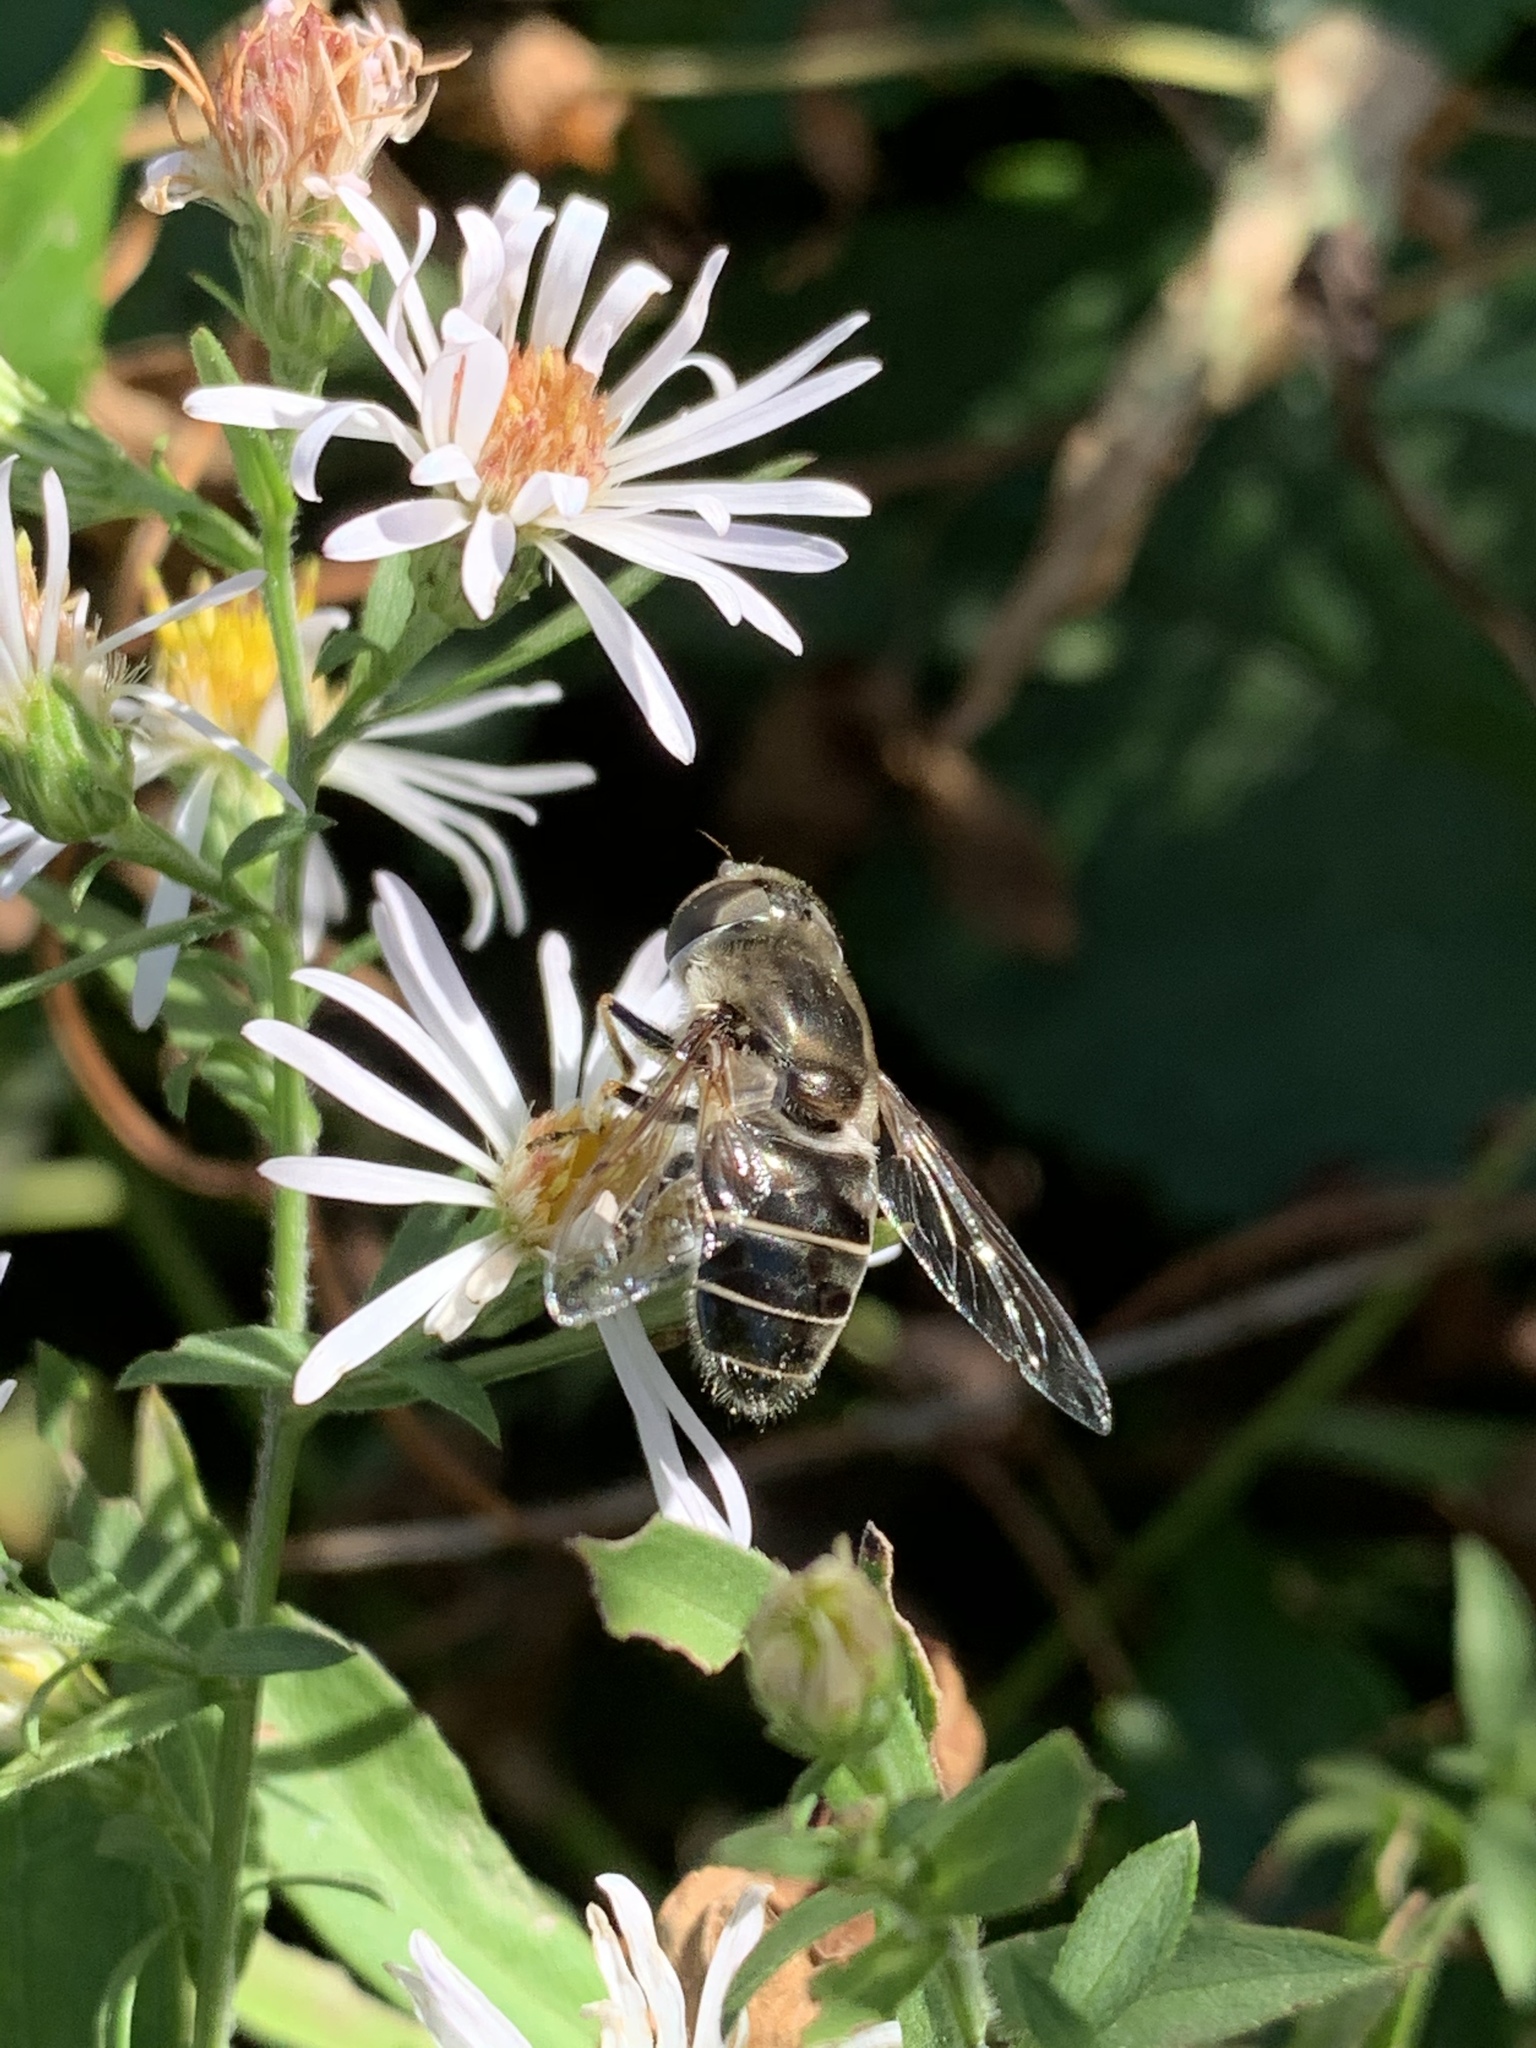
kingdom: Animalia
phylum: Arthropoda
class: Insecta
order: Diptera
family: Syrphidae
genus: Eristalis
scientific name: Eristalis dimidiata
